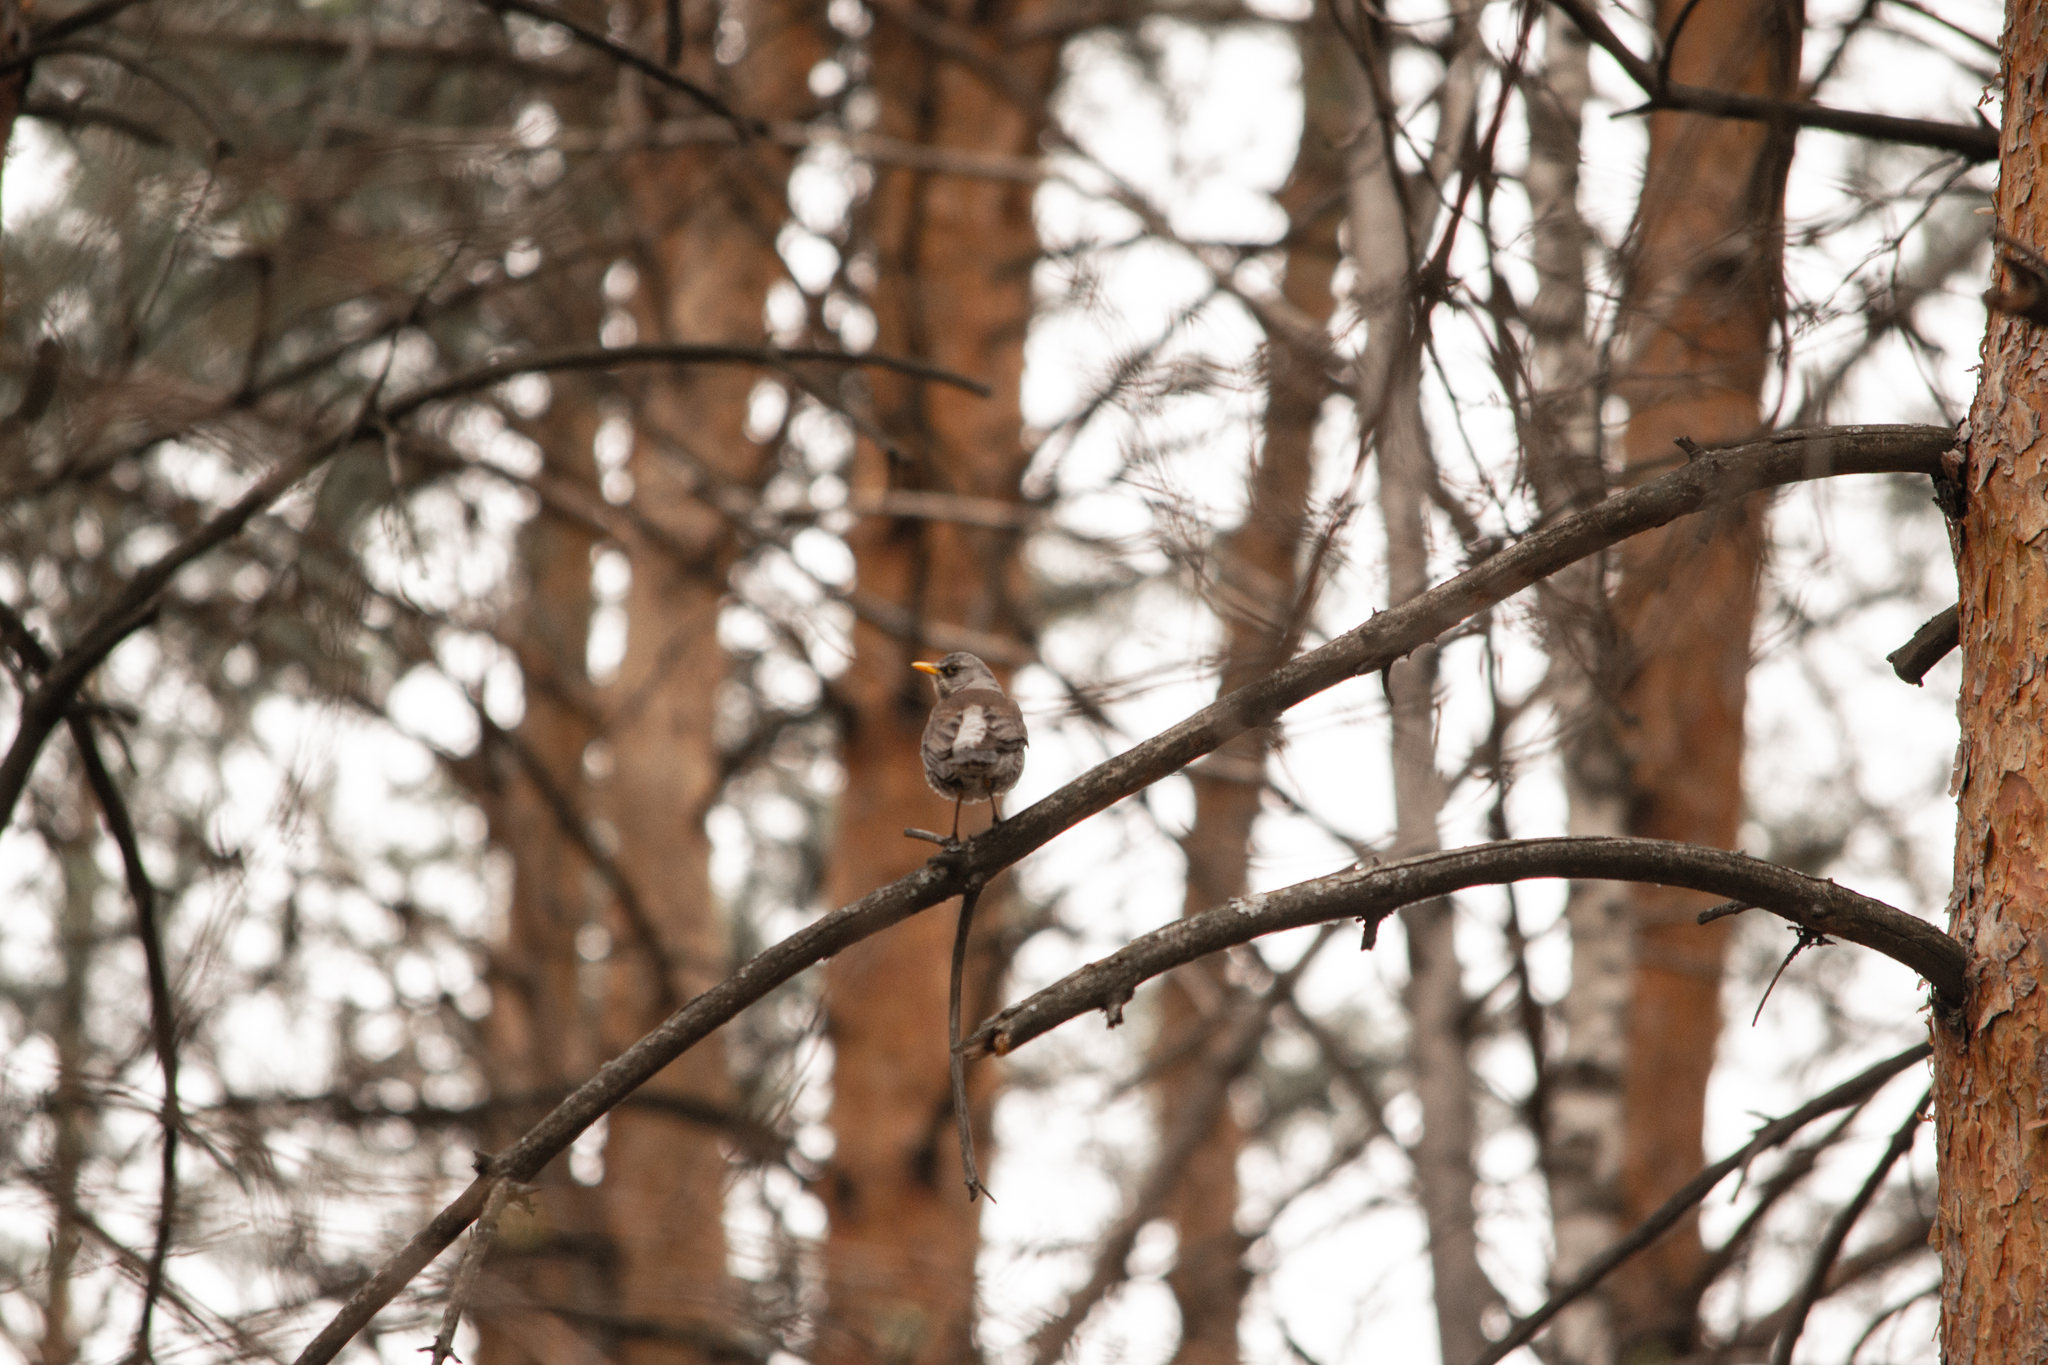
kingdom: Animalia
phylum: Chordata
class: Aves
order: Passeriformes
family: Turdidae
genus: Turdus
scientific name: Turdus pilaris
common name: Fieldfare
